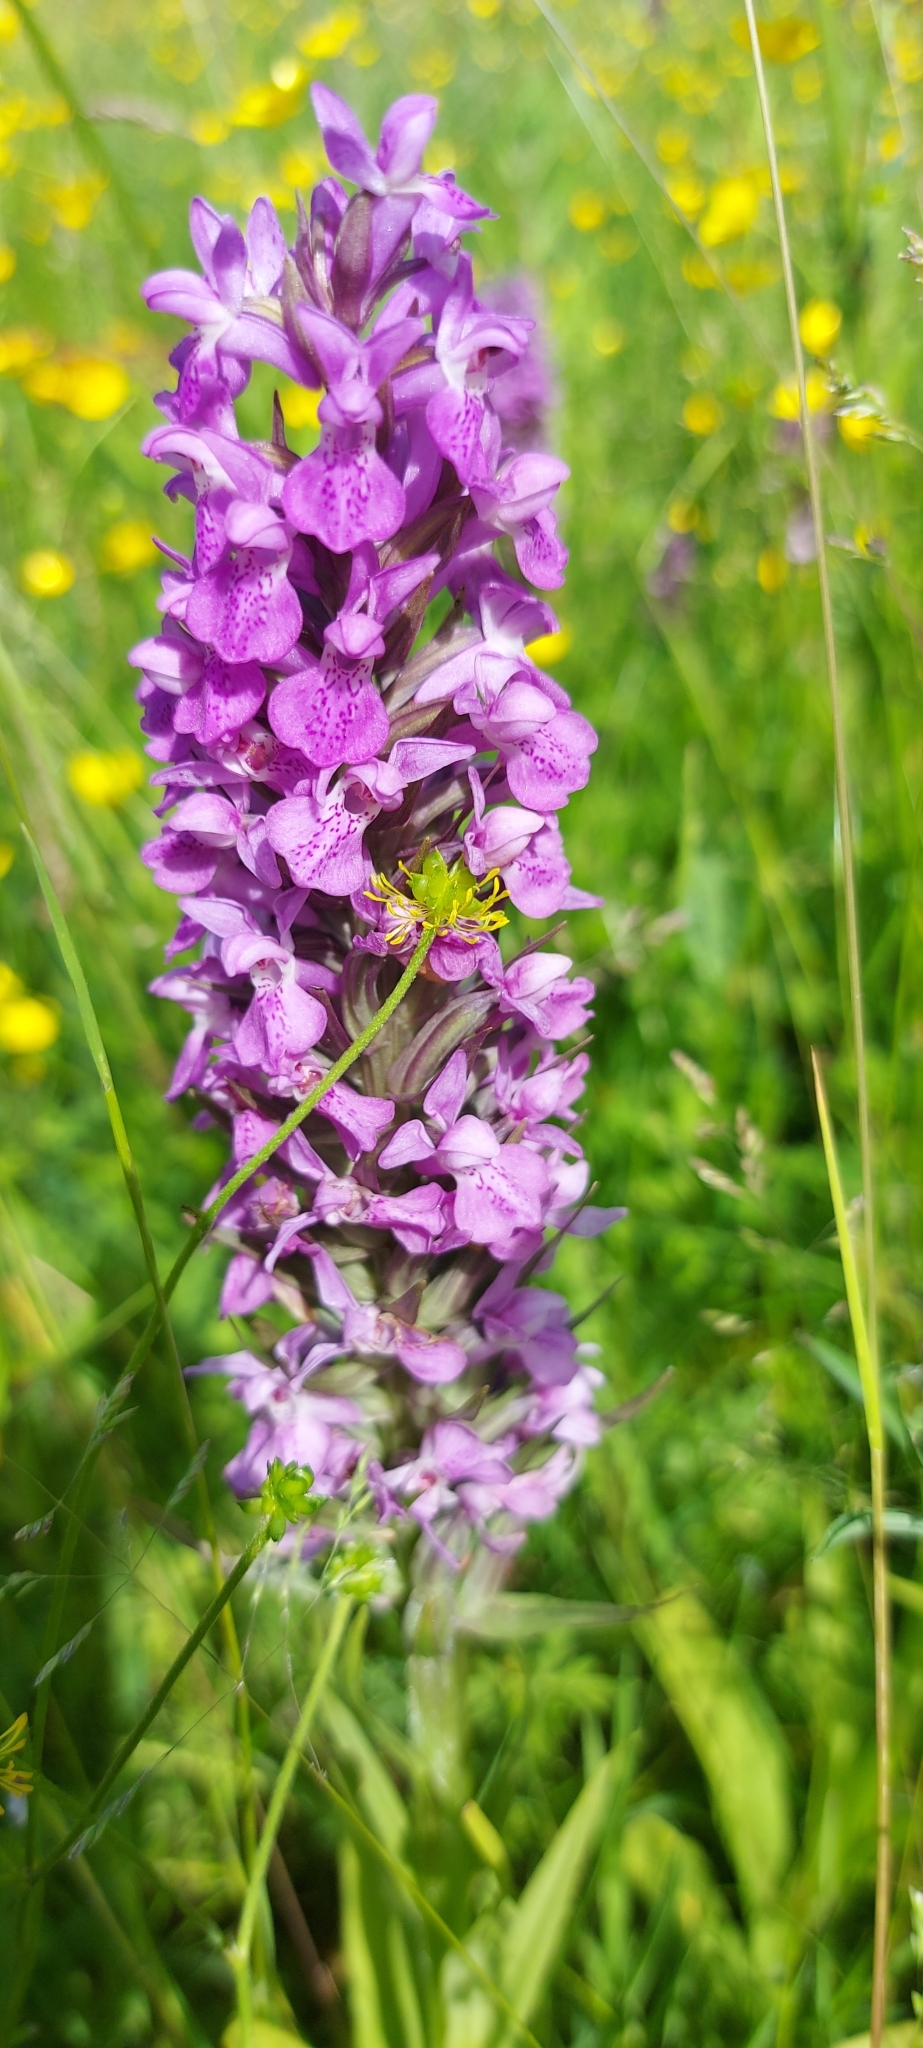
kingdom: Plantae
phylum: Tracheophyta
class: Liliopsida
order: Asparagales
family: Orchidaceae
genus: Dactylorhiza
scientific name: Dactylorhiza majalis
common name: Marsh orchid
